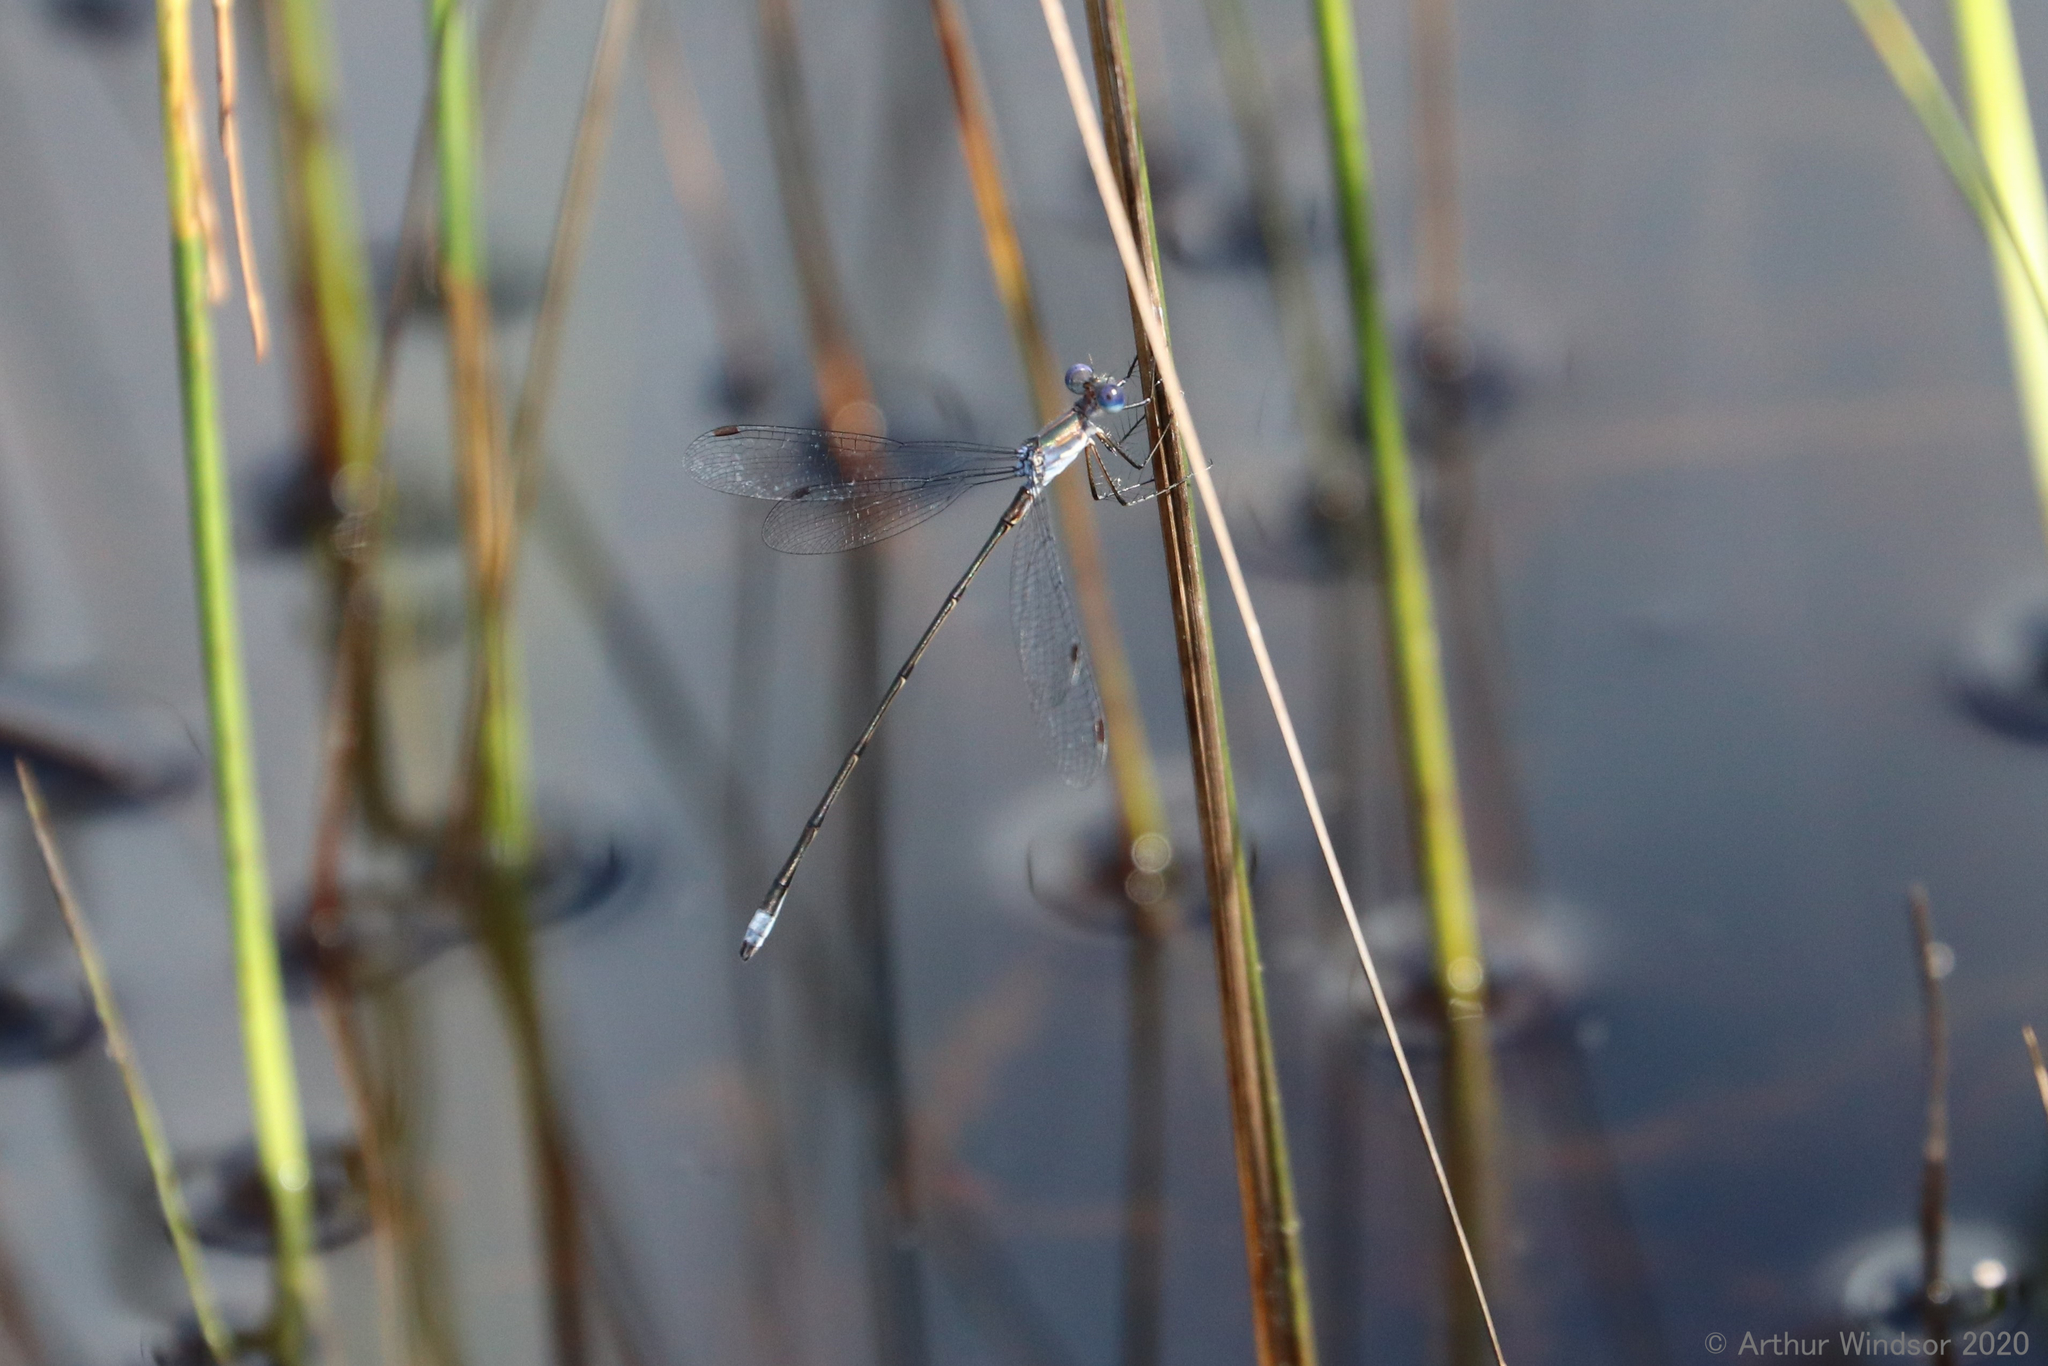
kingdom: Animalia
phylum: Arthropoda
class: Insecta
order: Odonata
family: Lestidae
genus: Lestes
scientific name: Lestes vidua
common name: Carolina spreadwing
